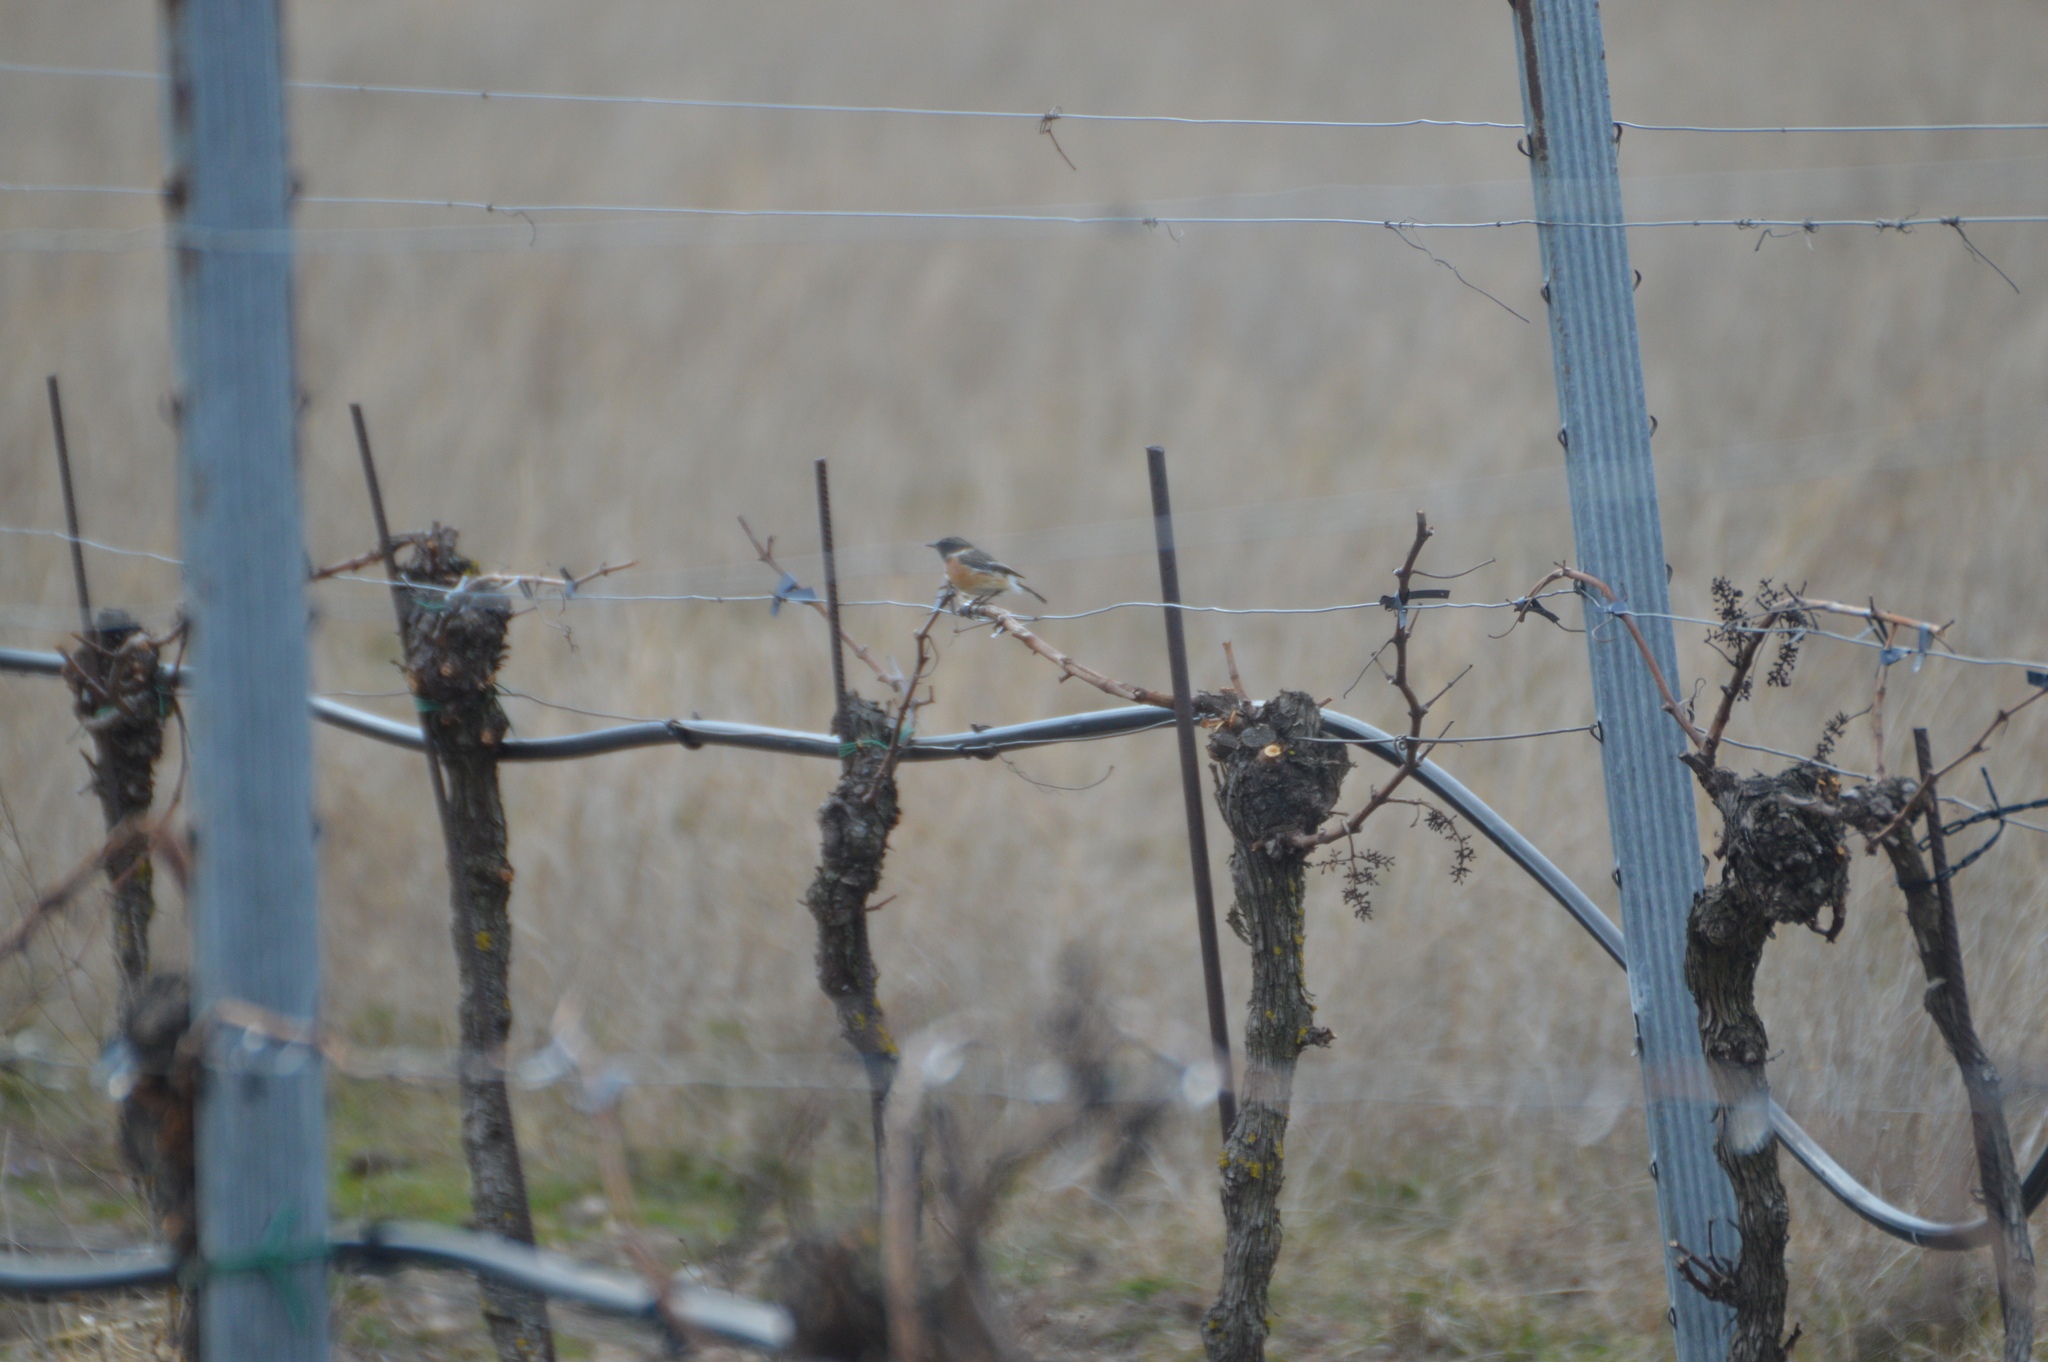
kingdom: Animalia
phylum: Chordata
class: Aves
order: Passeriformes
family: Muscicapidae
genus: Saxicola
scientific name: Saxicola rubicola
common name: European stonechat
